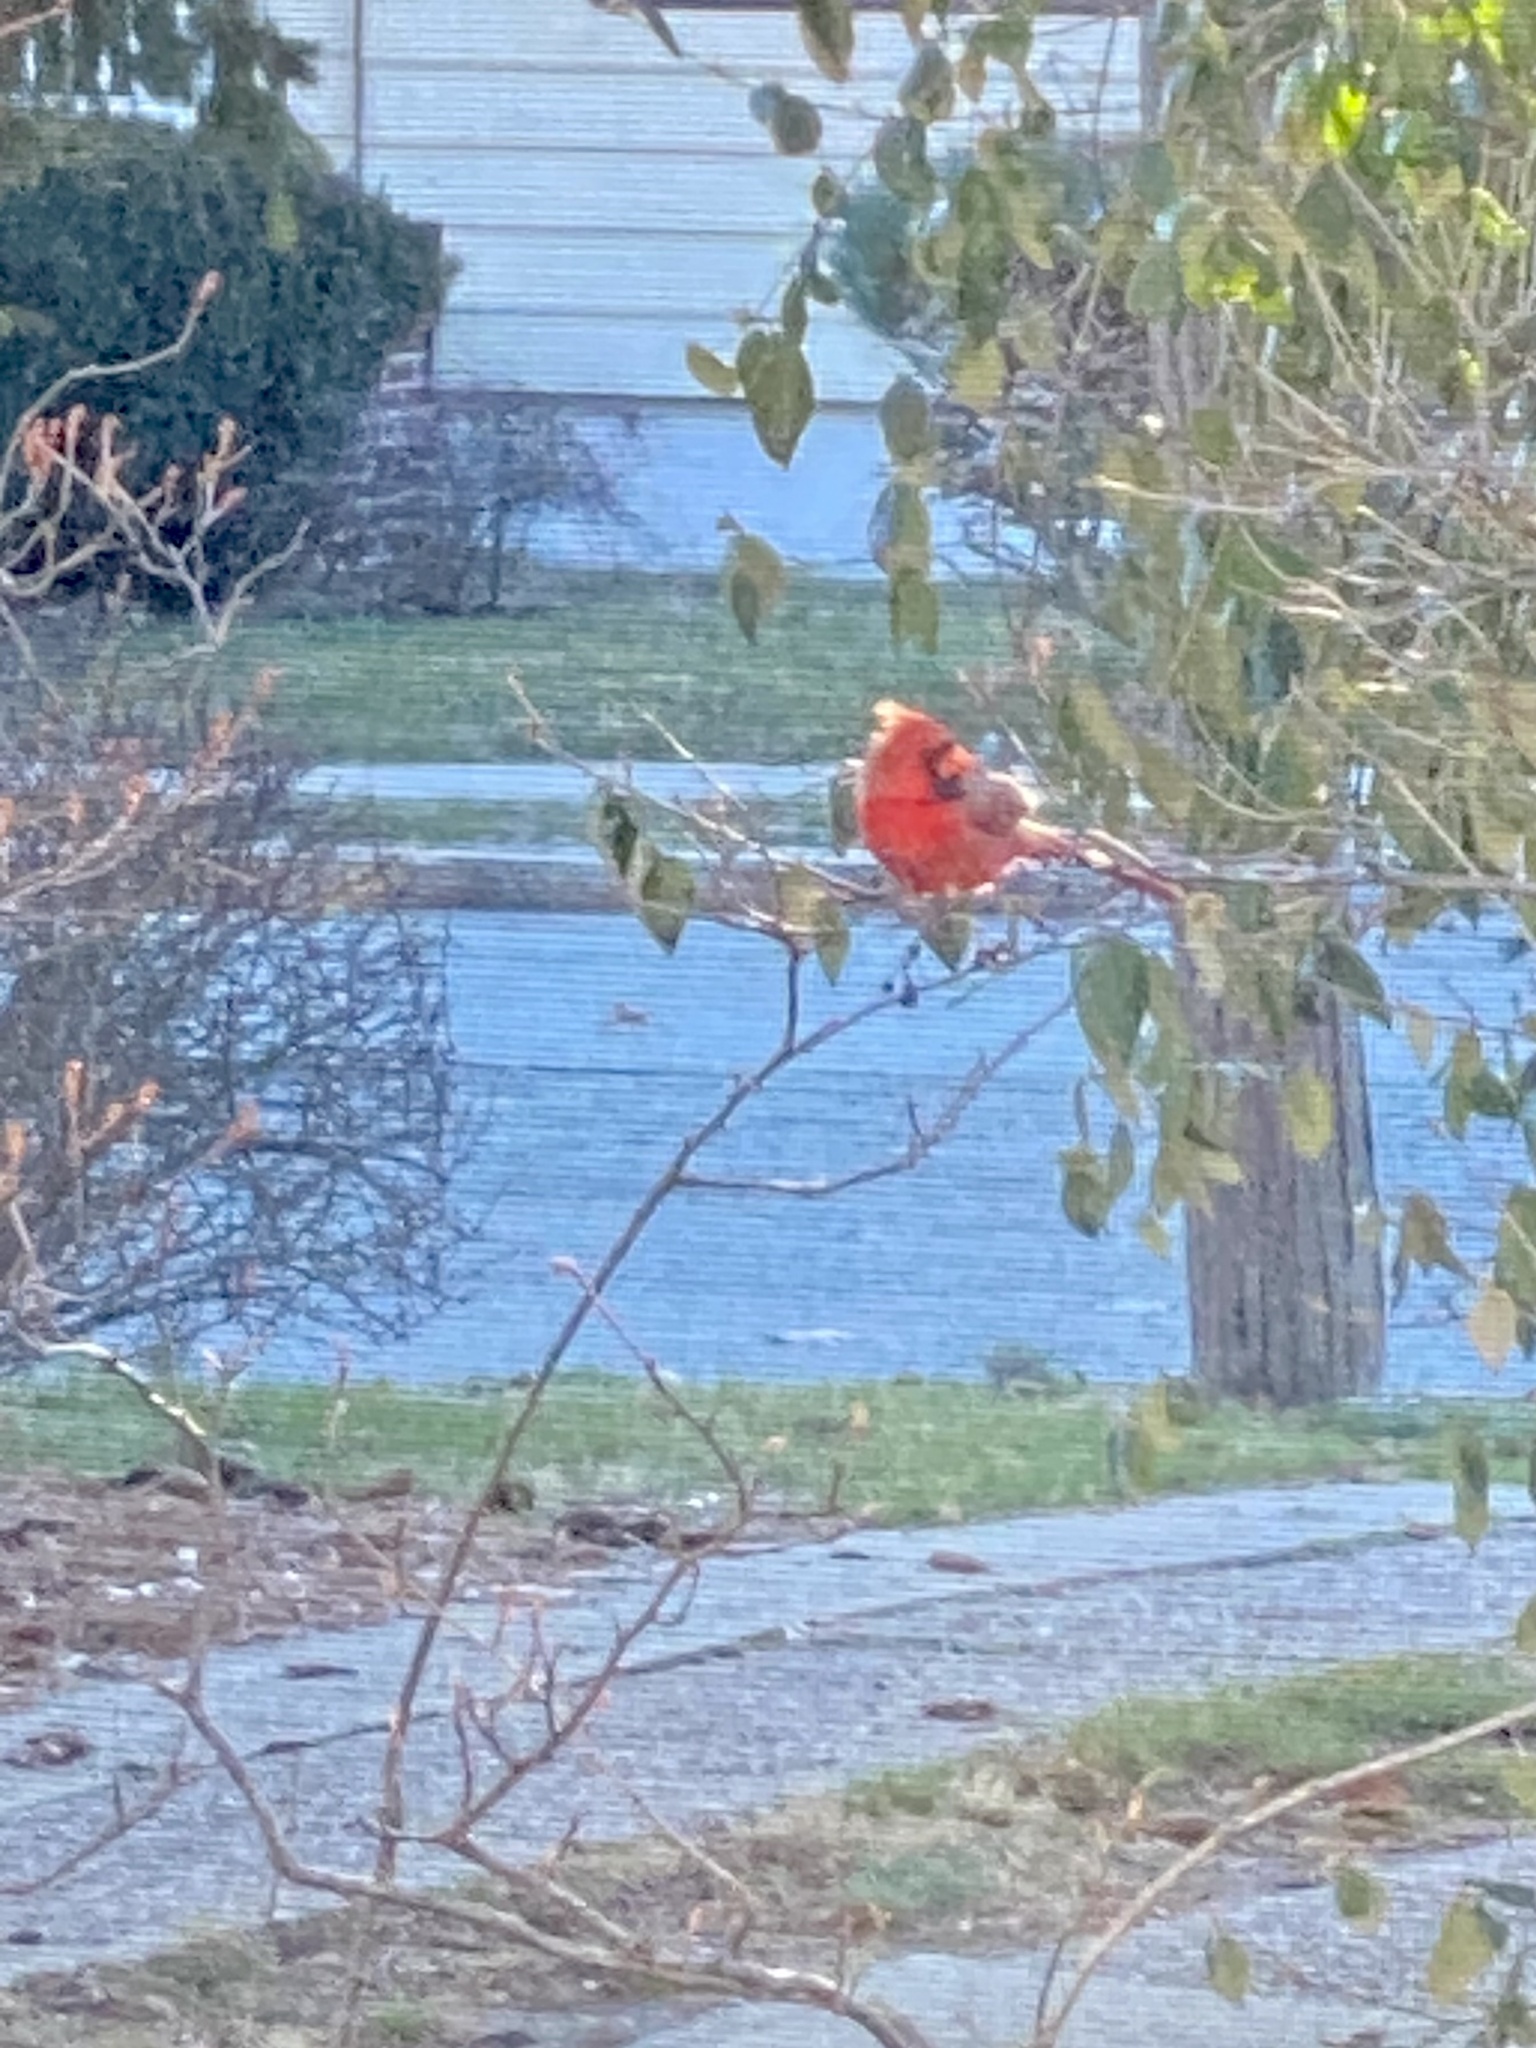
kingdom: Animalia
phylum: Chordata
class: Aves
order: Passeriformes
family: Cardinalidae
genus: Cardinalis
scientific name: Cardinalis cardinalis
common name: Northern cardinal
